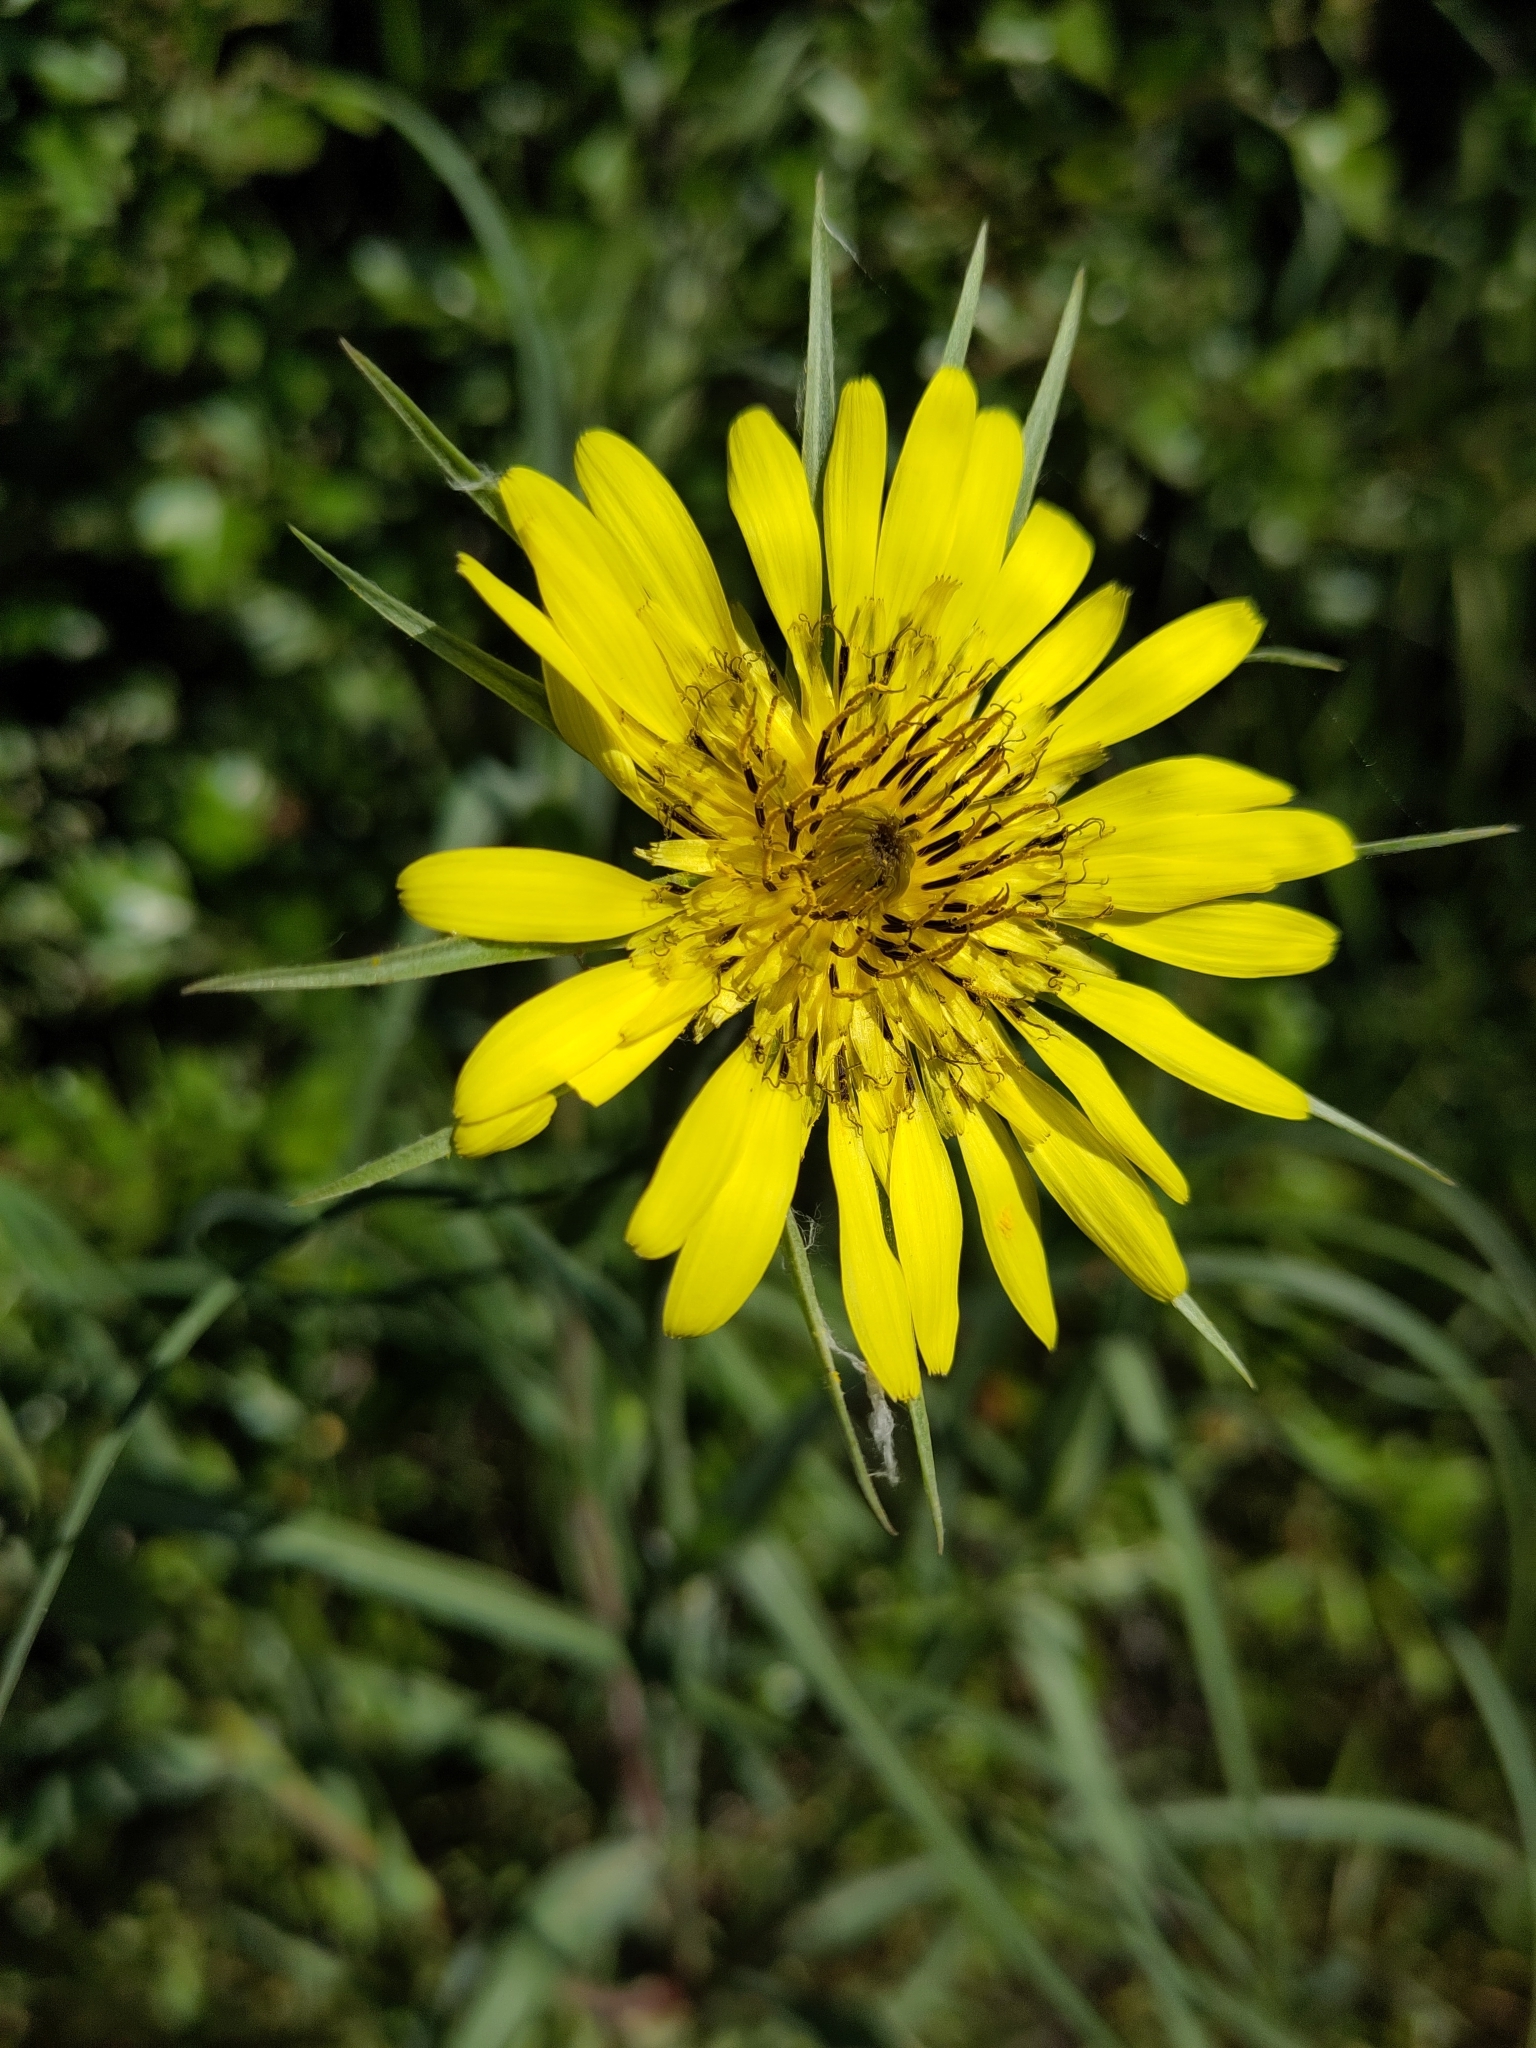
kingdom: Plantae
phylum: Tracheophyta
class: Magnoliopsida
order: Asterales
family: Asteraceae
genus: Tragopogon
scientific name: Tragopogon dubius
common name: Yellow salsify
